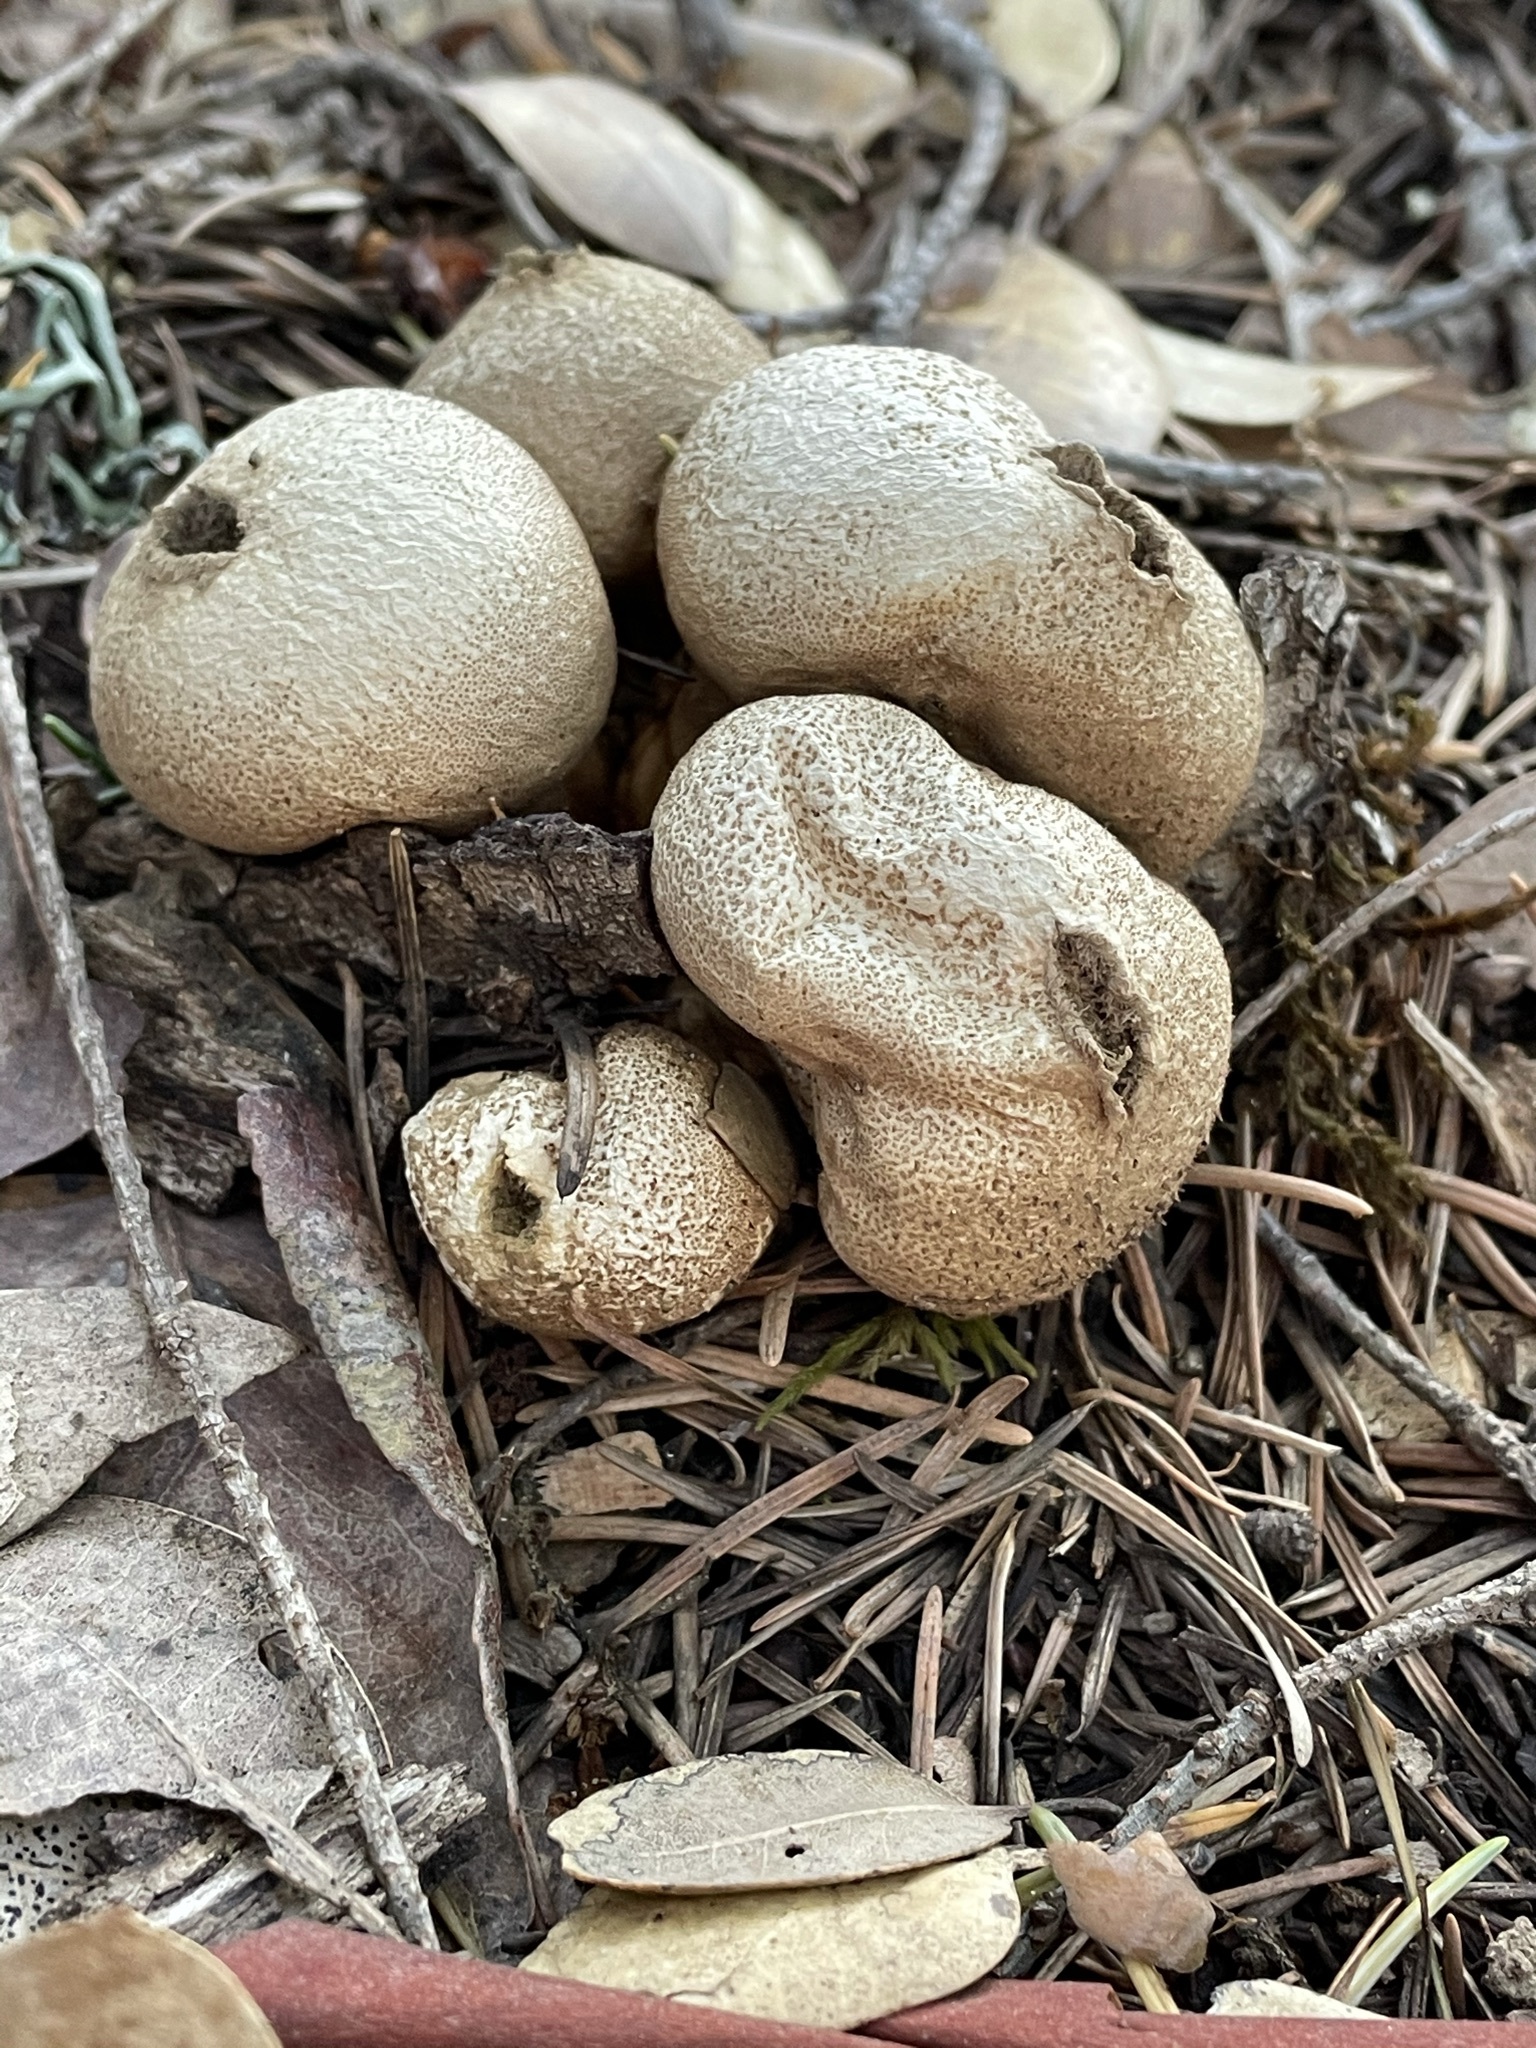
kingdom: Fungi
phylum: Basidiomycota
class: Agaricomycetes
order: Agaricales
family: Lycoperdaceae
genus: Lycoperdon
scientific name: Lycoperdon perlatum
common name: Common puffball
